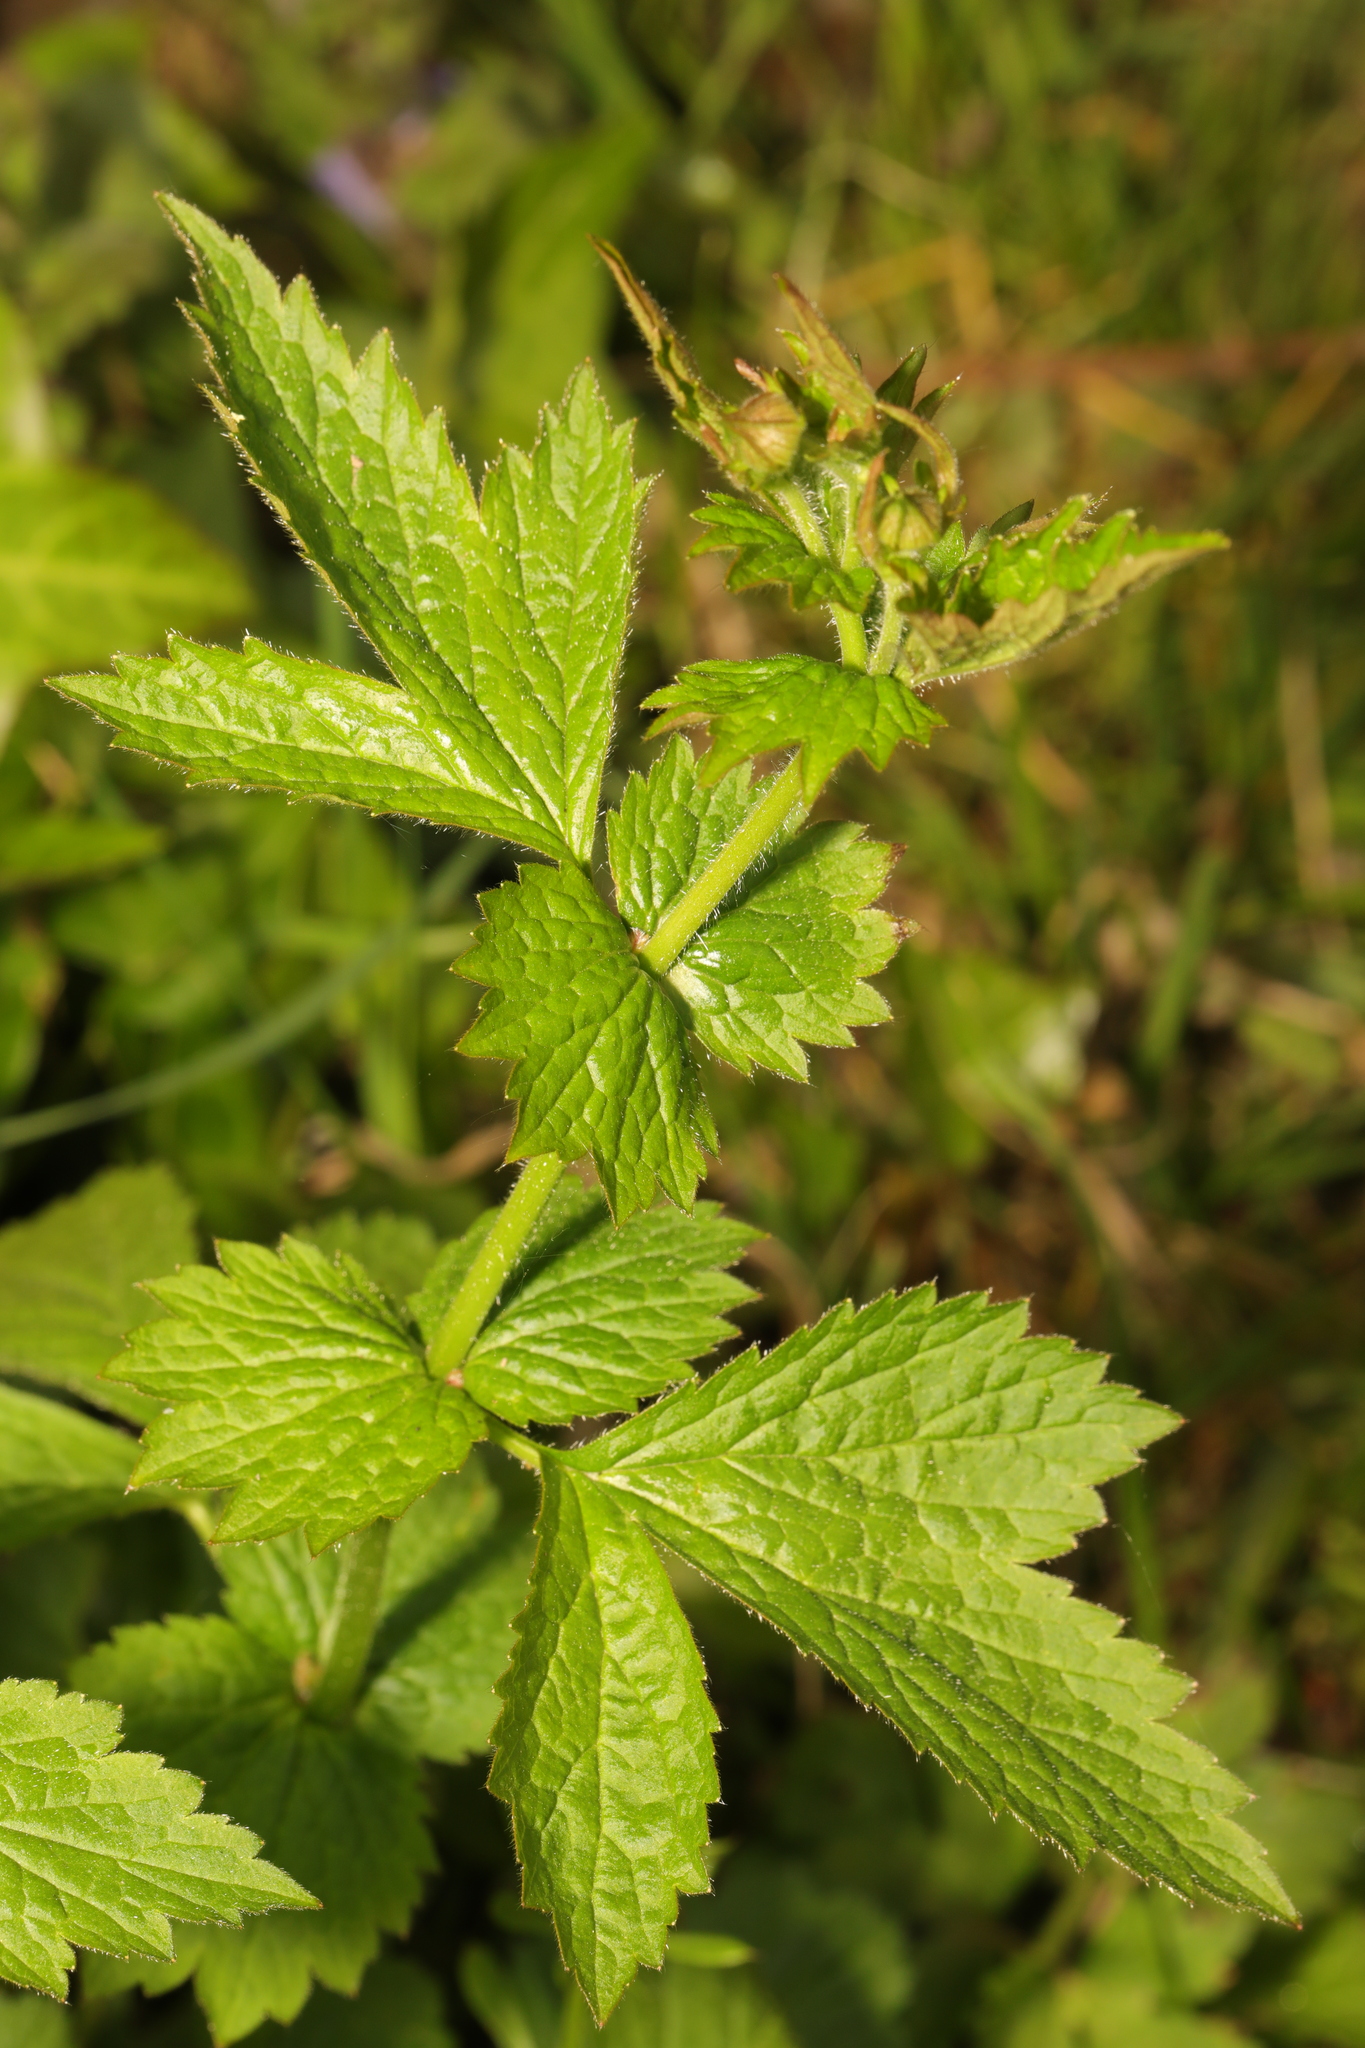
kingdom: Plantae
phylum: Tracheophyta
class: Magnoliopsida
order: Rosales
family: Rosaceae
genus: Geum
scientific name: Geum urbanum
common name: Wood avens
